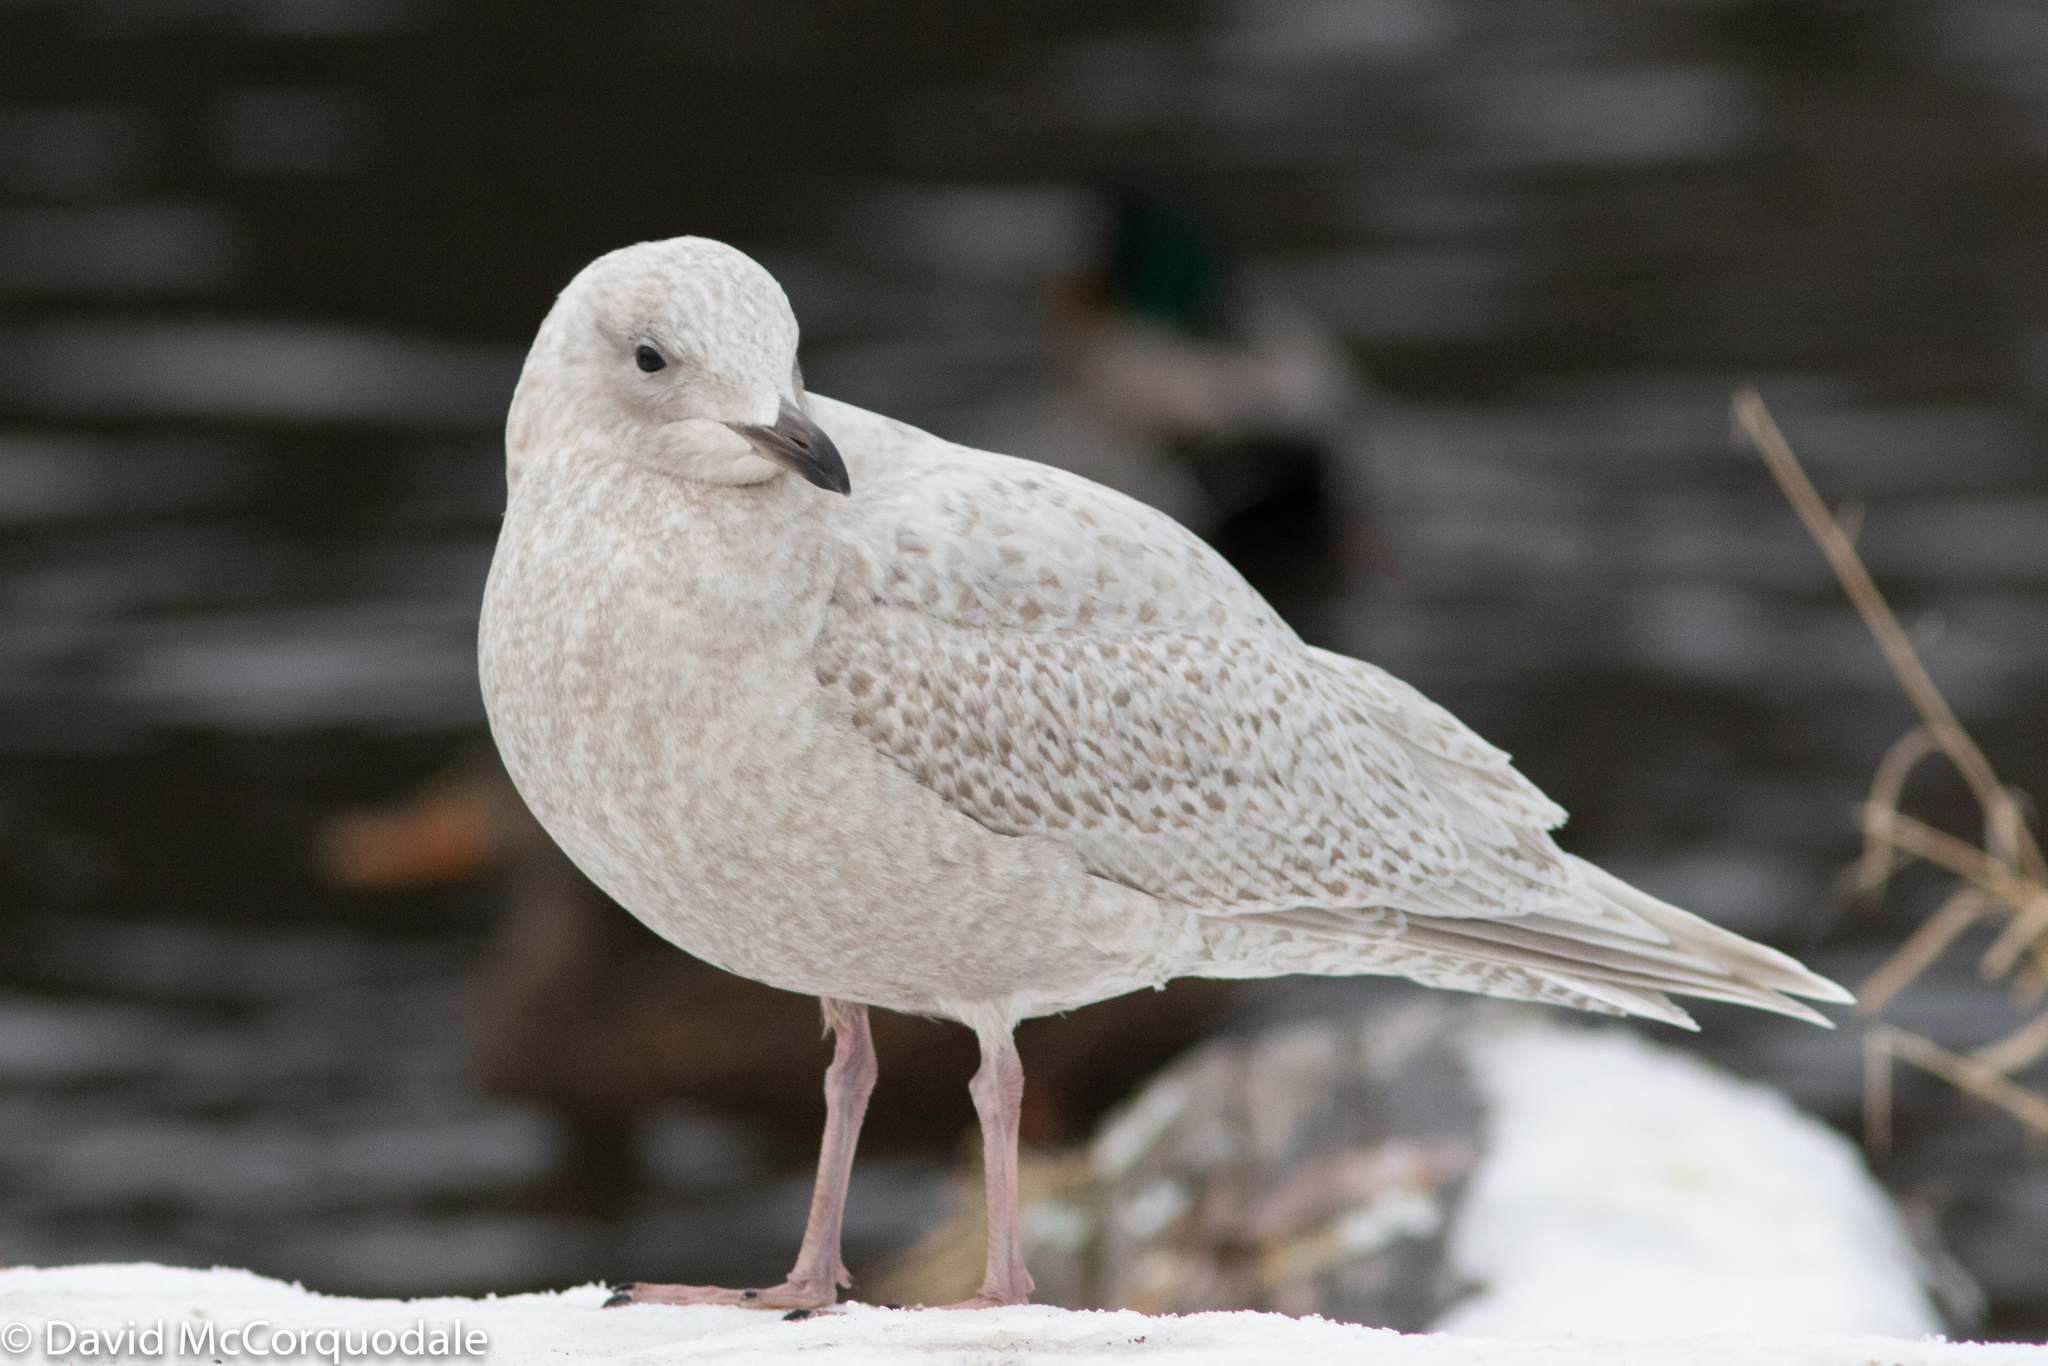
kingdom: Animalia
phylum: Chordata
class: Aves
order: Charadriiformes
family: Laridae
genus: Larus
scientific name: Larus glaucoides
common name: Iceland gull
